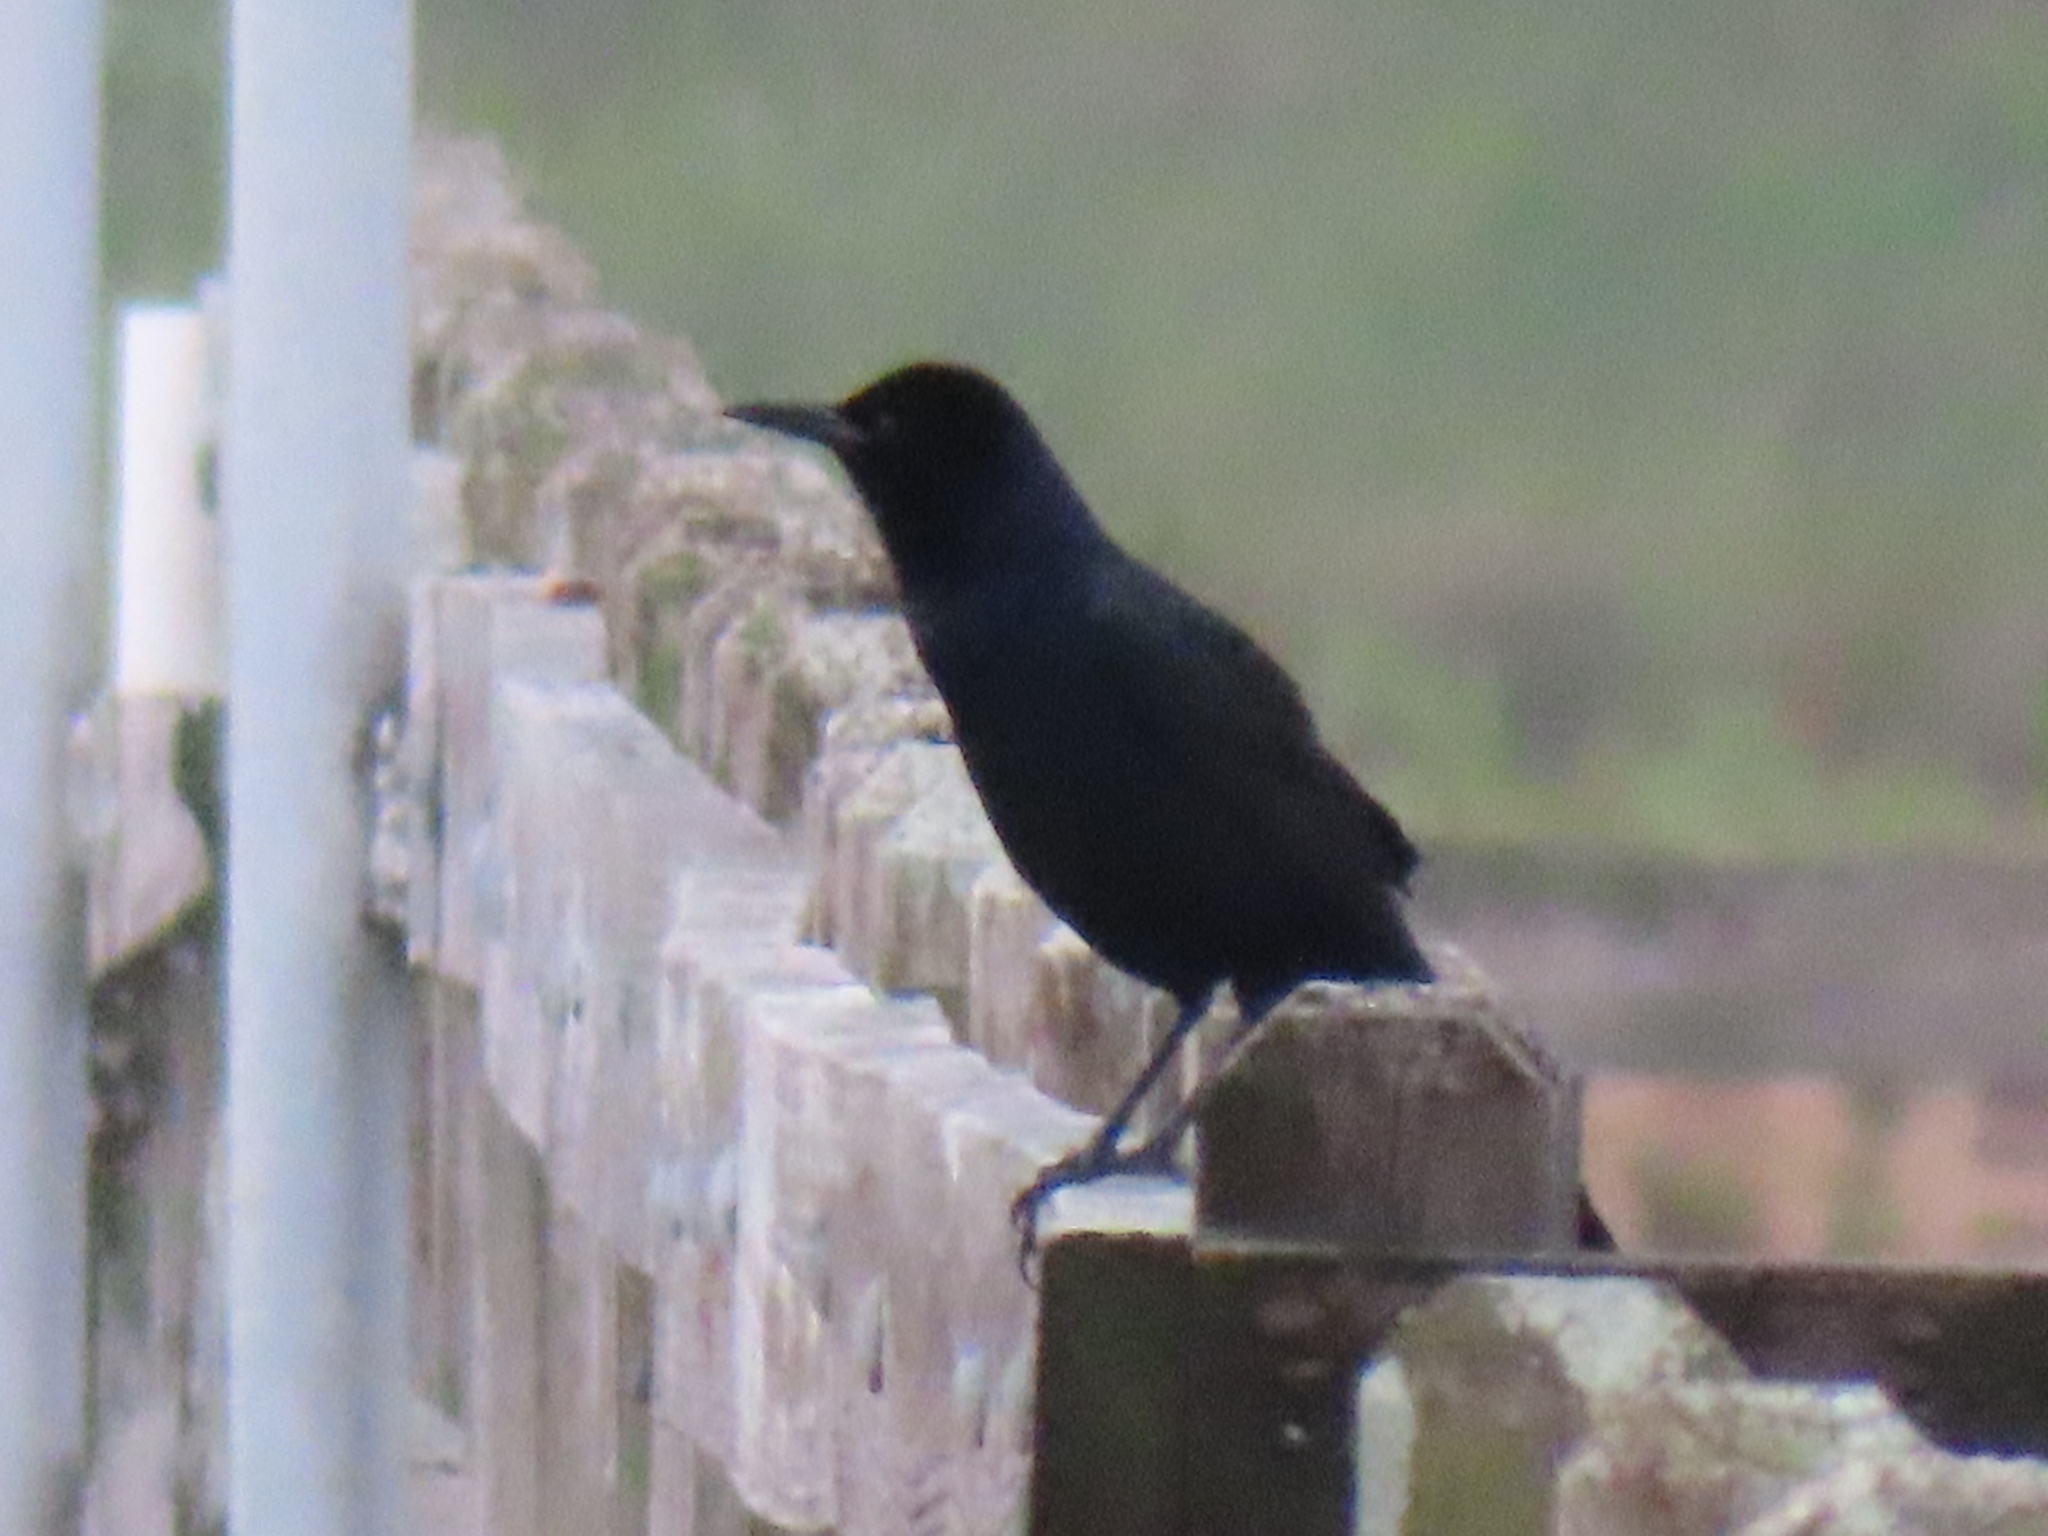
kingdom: Animalia
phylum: Chordata
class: Aves
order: Passeriformes
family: Icteridae
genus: Quiscalus
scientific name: Quiscalus major
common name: Boat-tailed grackle
